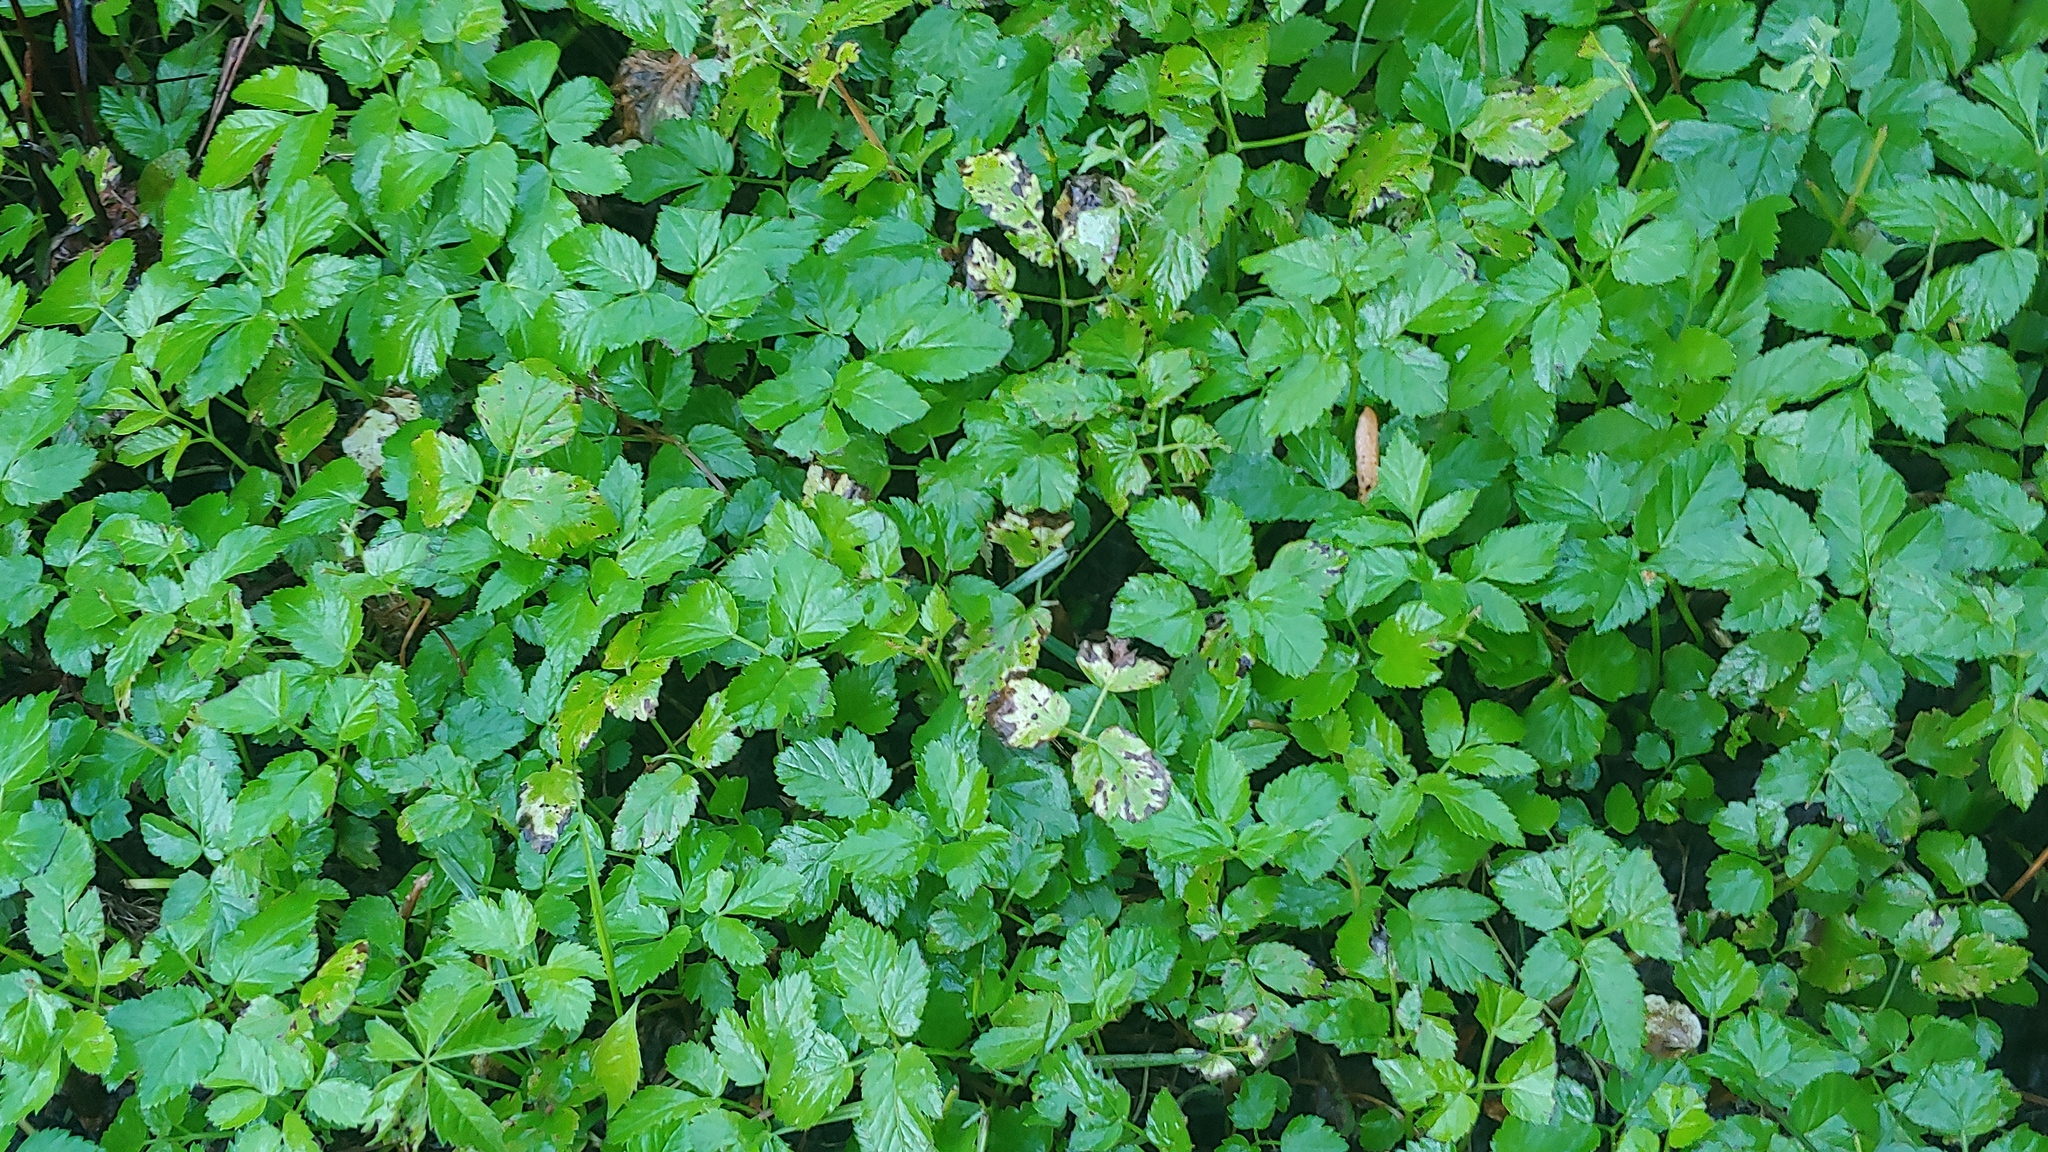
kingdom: Plantae
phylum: Tracheophyta
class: Magnoliopsida
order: Apiales
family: Apiaceae
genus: Aegopodium
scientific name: Aegopodium podagraria
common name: Ground-elder
